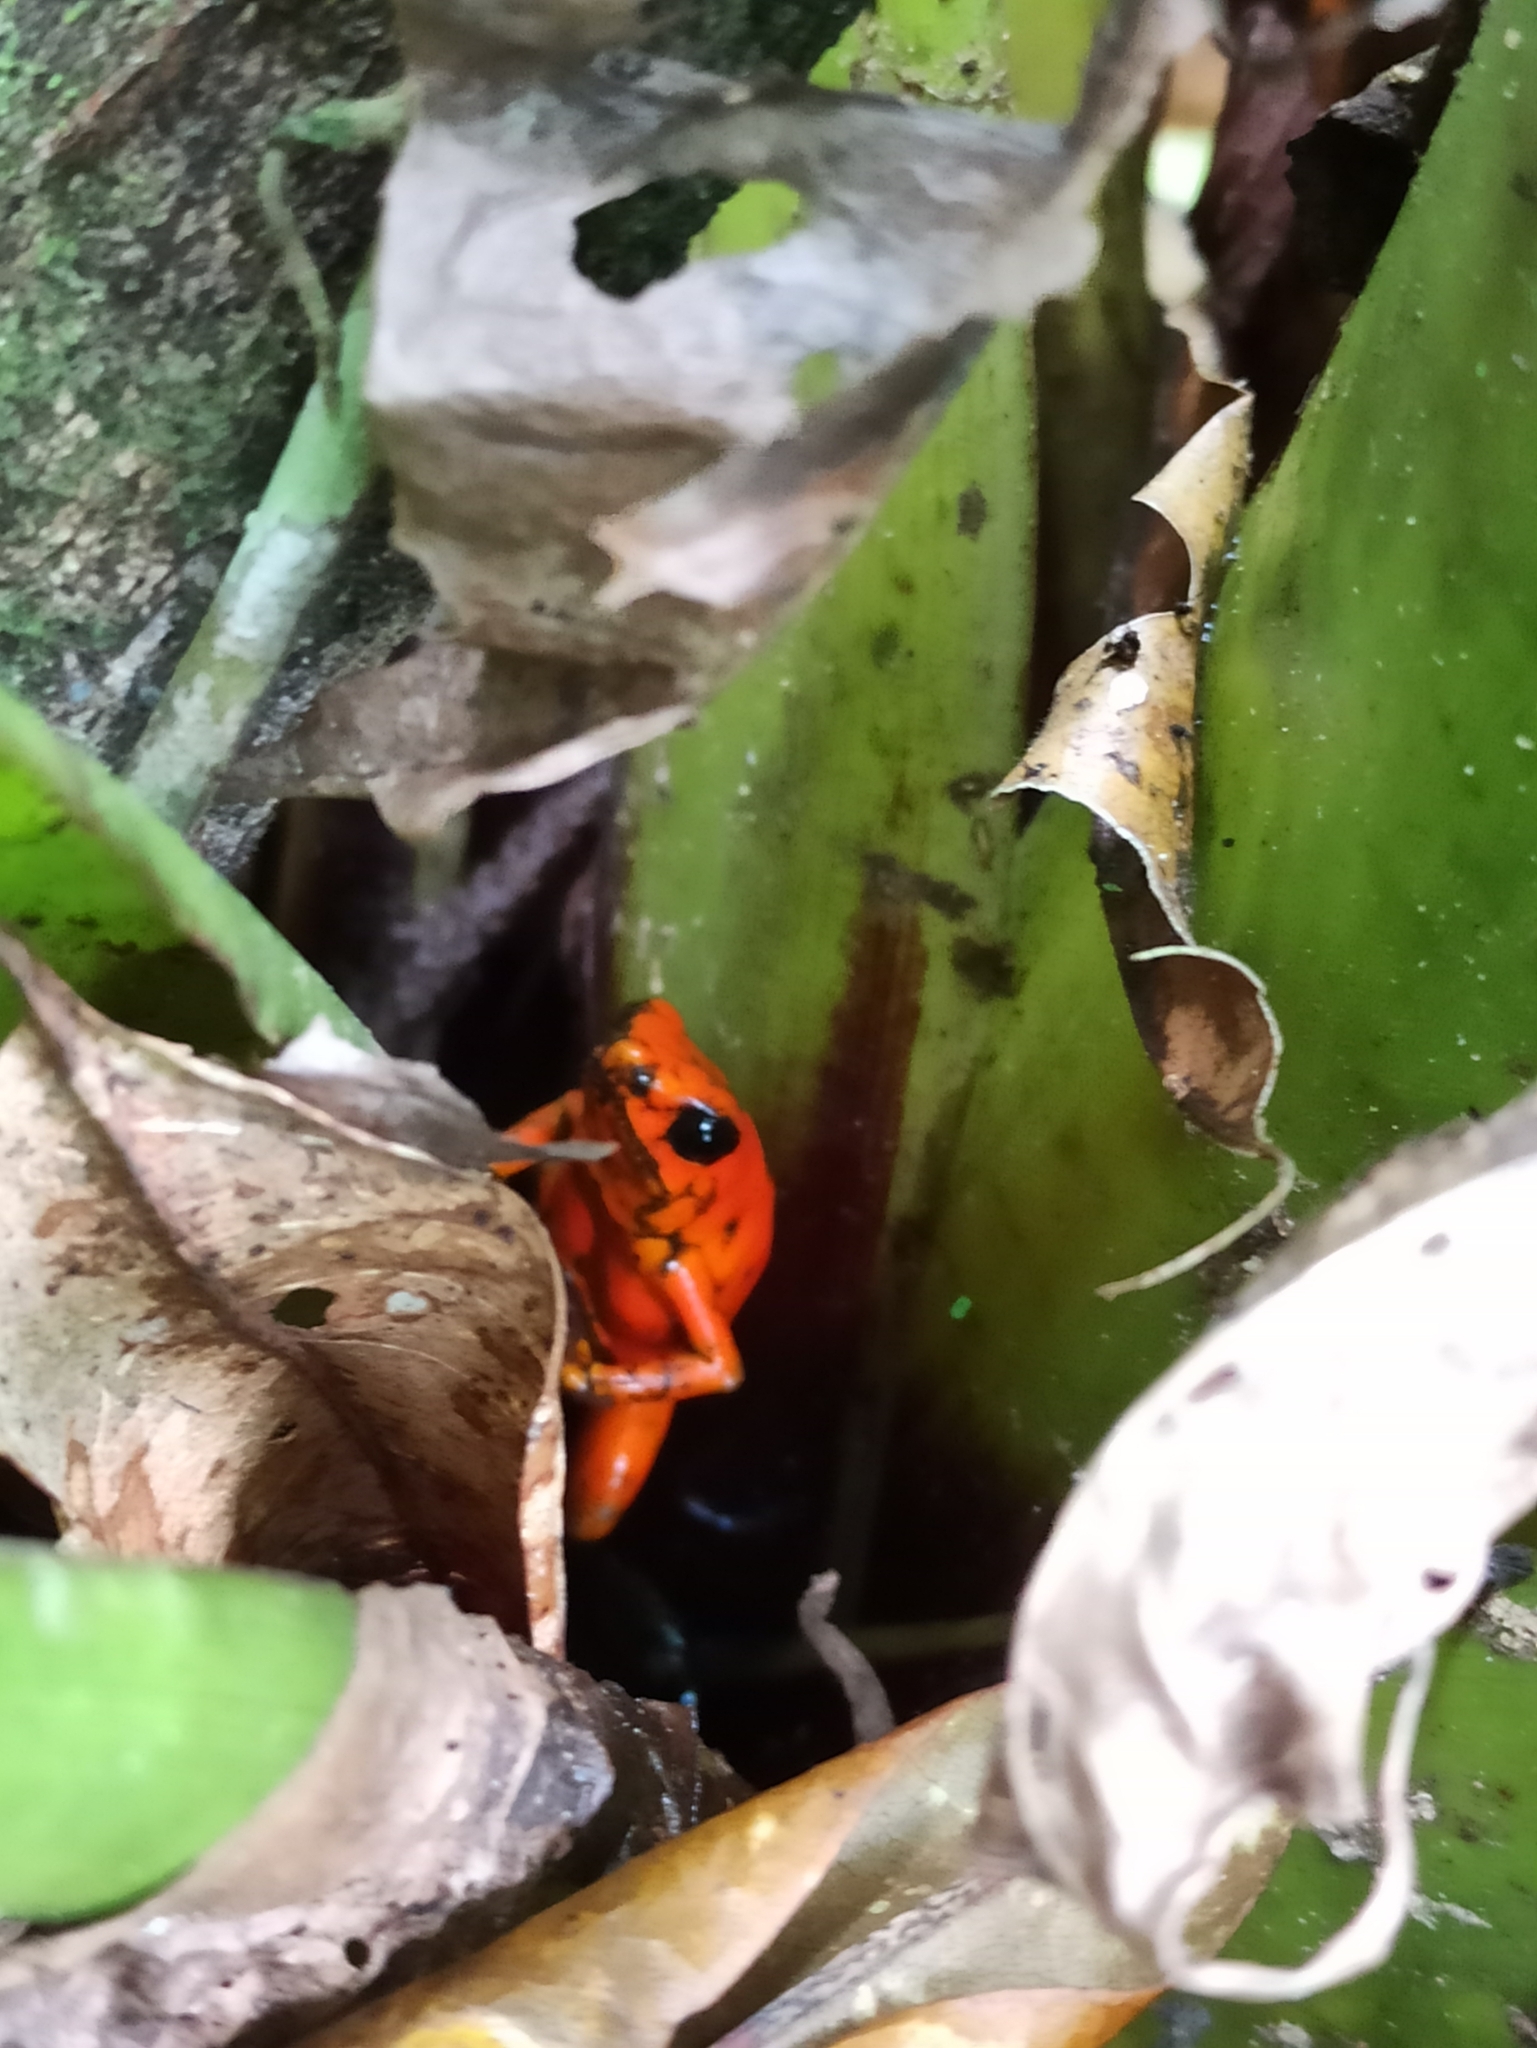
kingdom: Animalia
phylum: Chordata
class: Amphibia
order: Anura
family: Dendrobatidae
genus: Oophaga
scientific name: Oophaga sylvatica
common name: Little-devil poison frog
